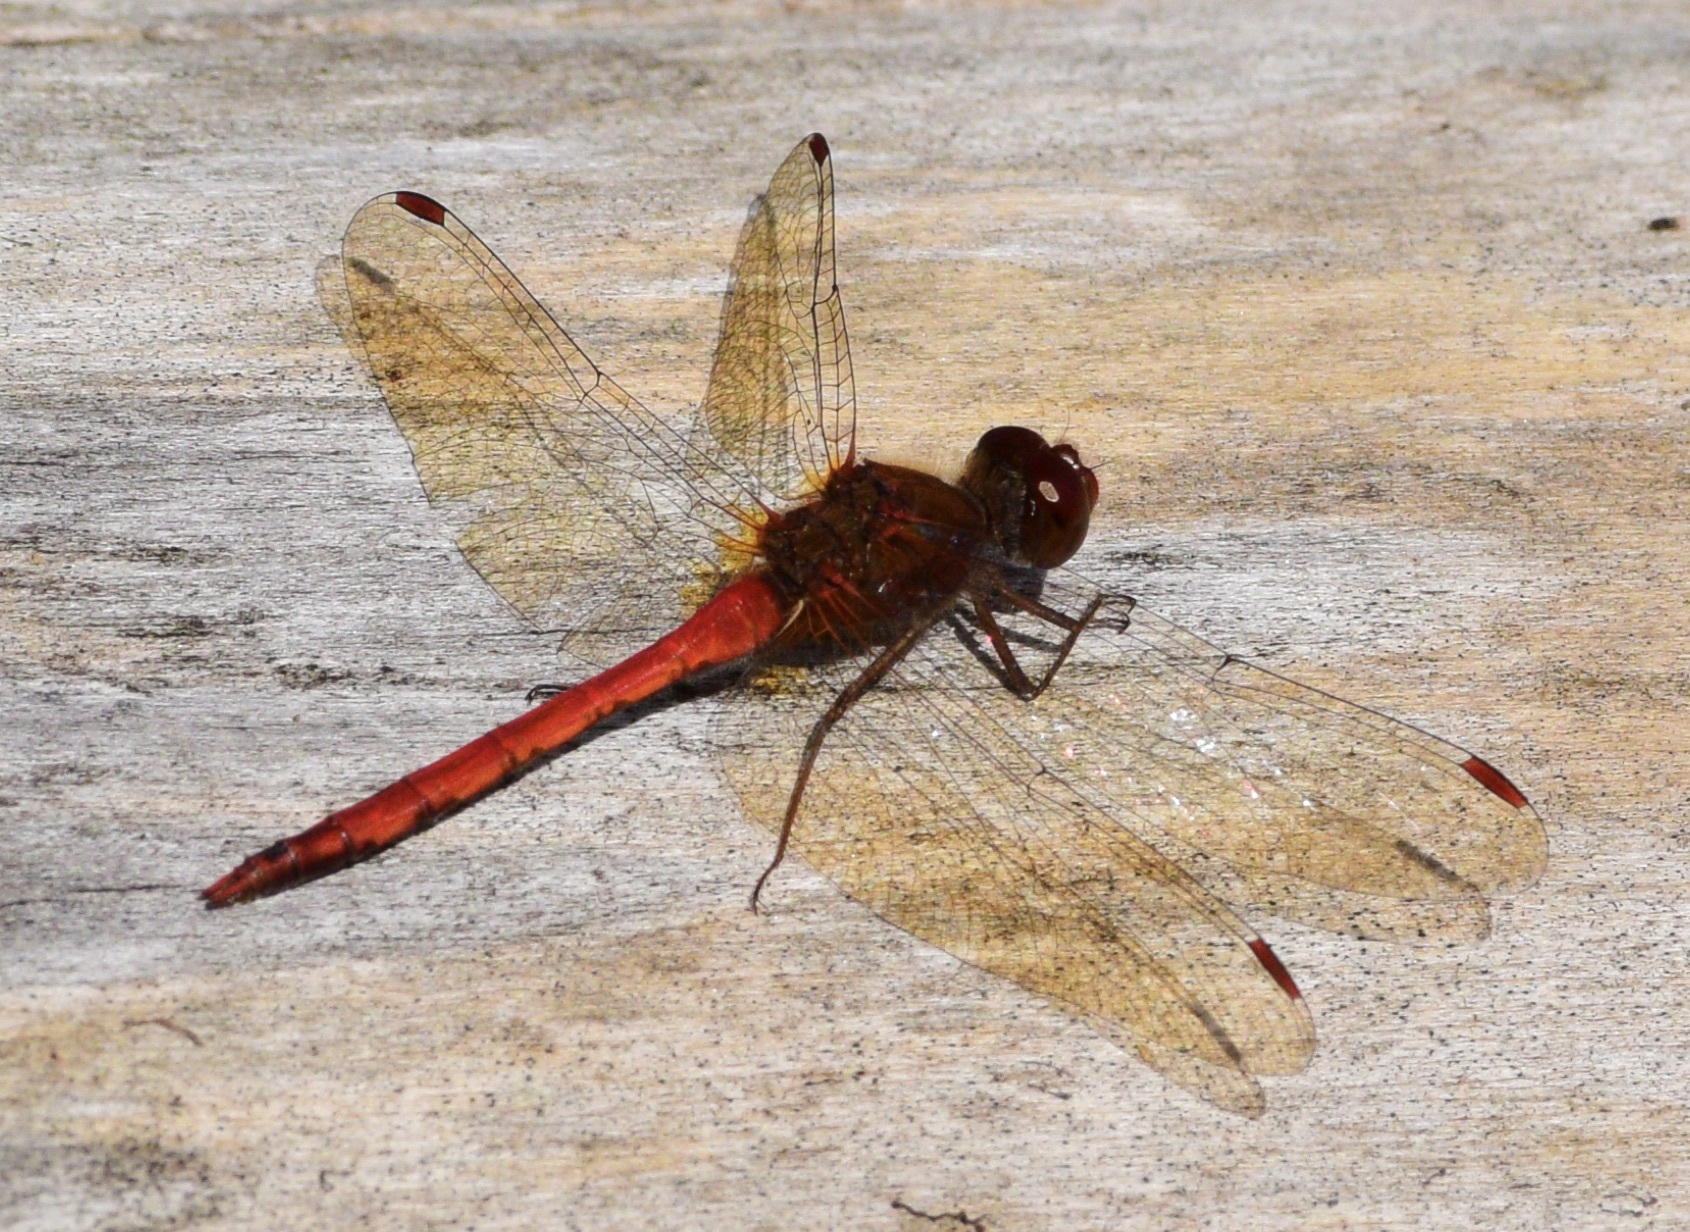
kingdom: Animalia
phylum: Arthropoda
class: Insecta
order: Odonata
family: Libellulidae
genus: Sympetrum
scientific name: Sympetrum vicinum
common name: Autumn meadowhawk
